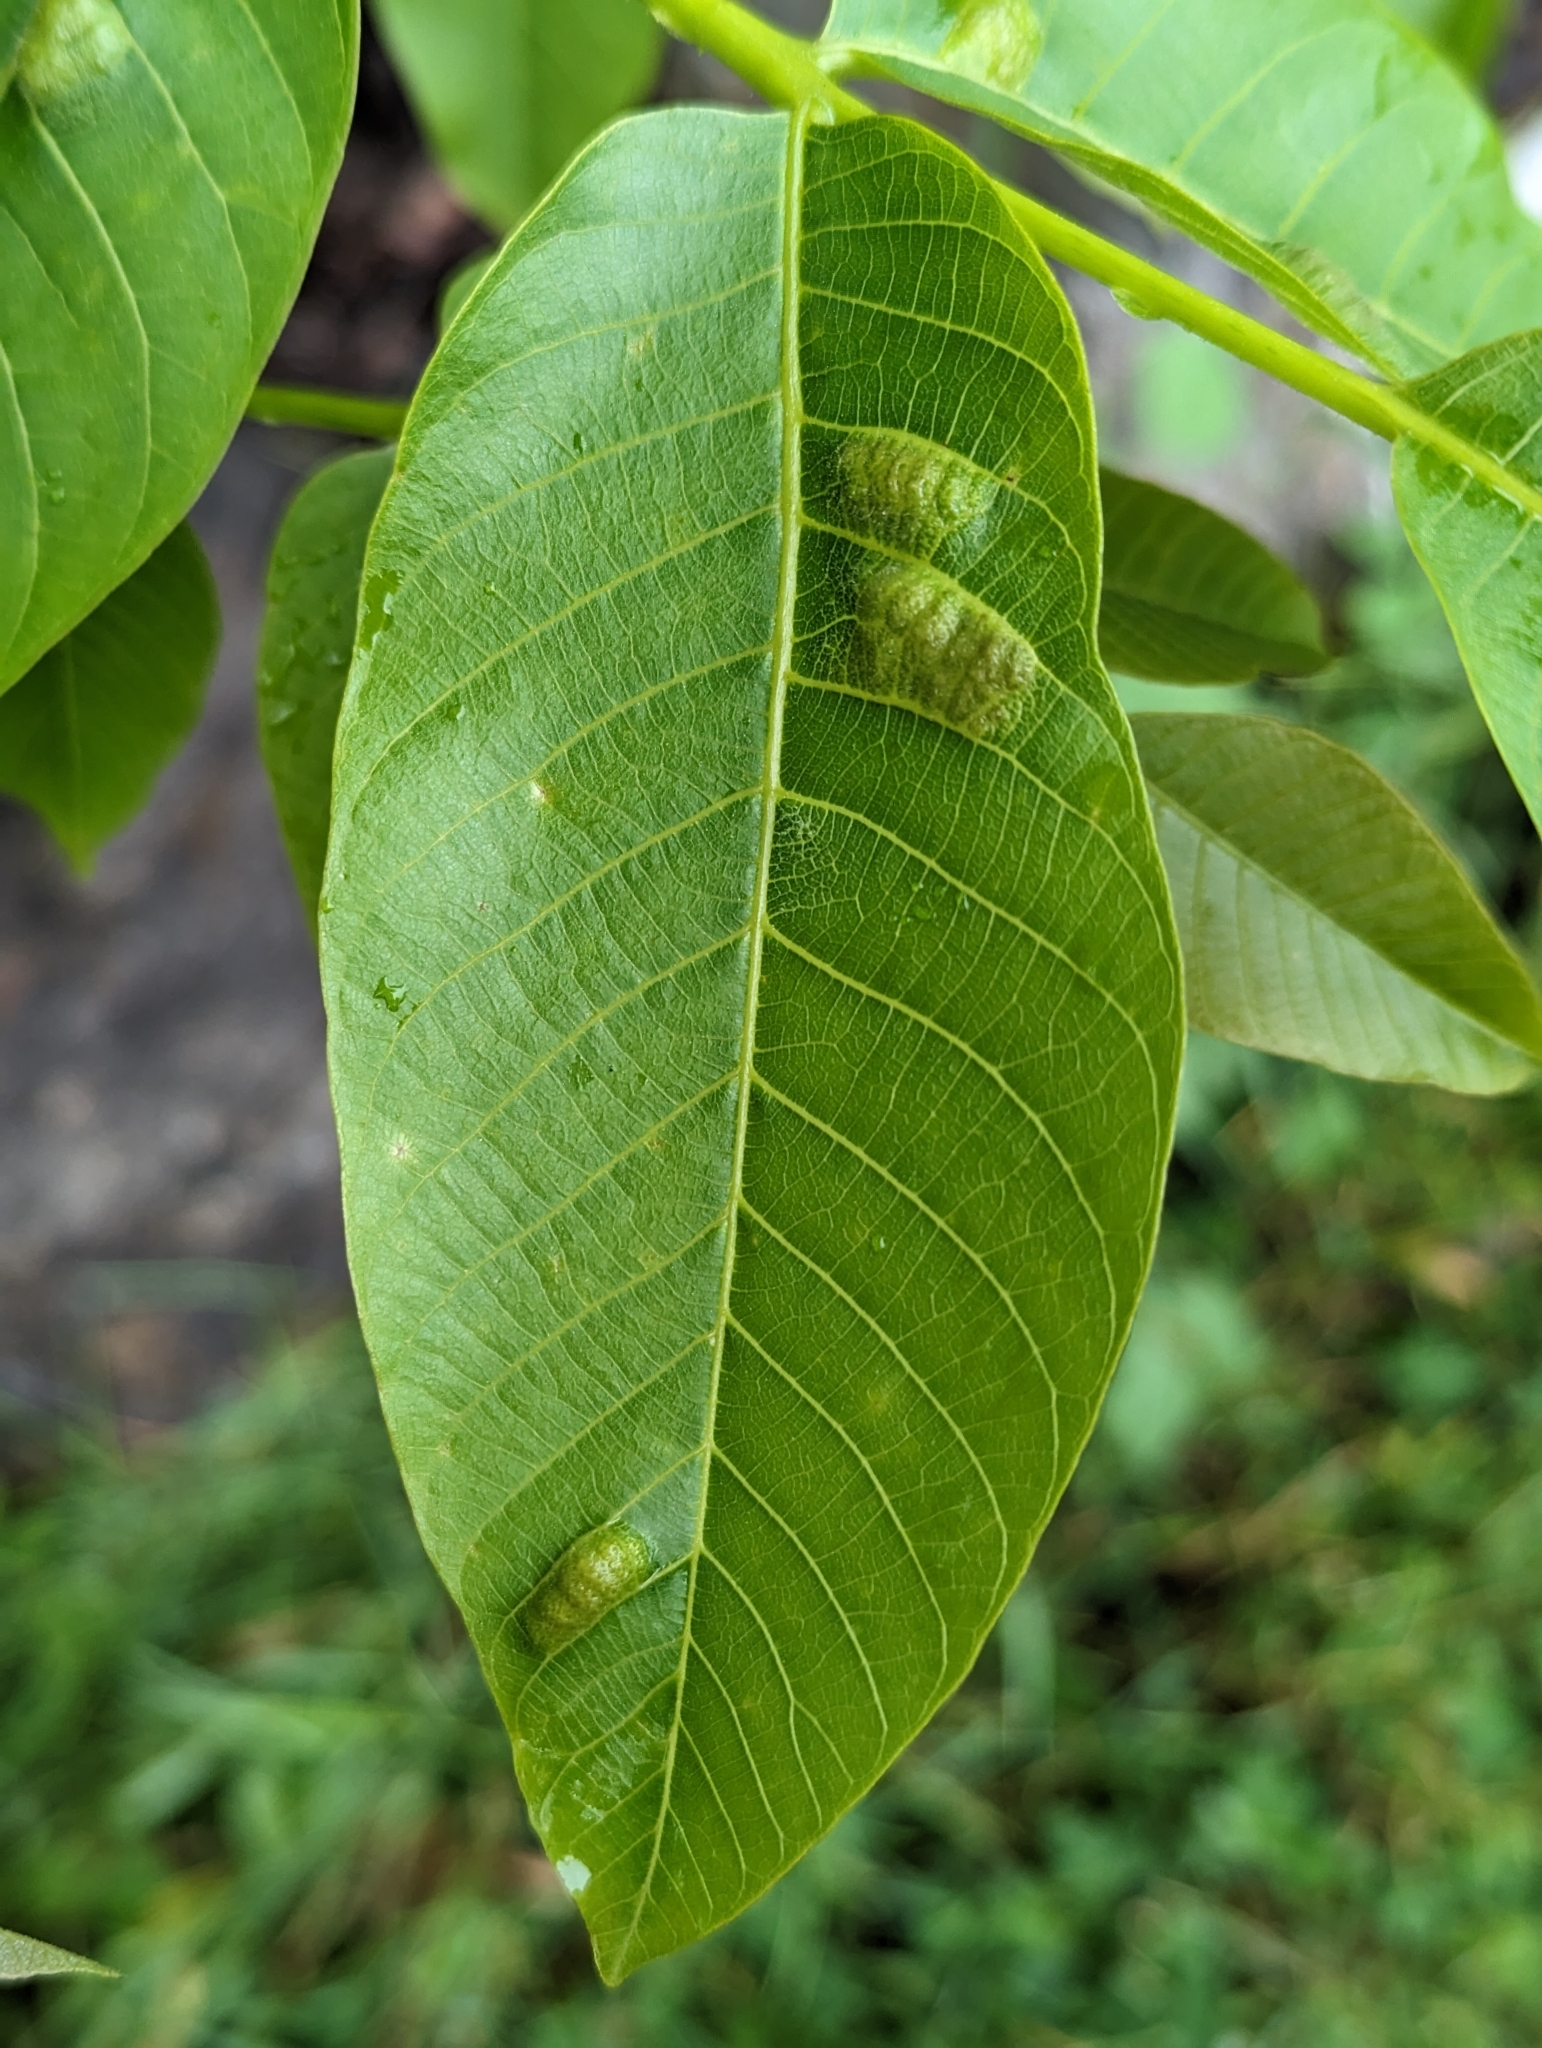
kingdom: Animalia
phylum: Arthropoda
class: Arachnida
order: Trombidiformes
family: Eriophyidae
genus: Aceria
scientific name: Aceria erinea
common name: Persian walnut erineum mite
